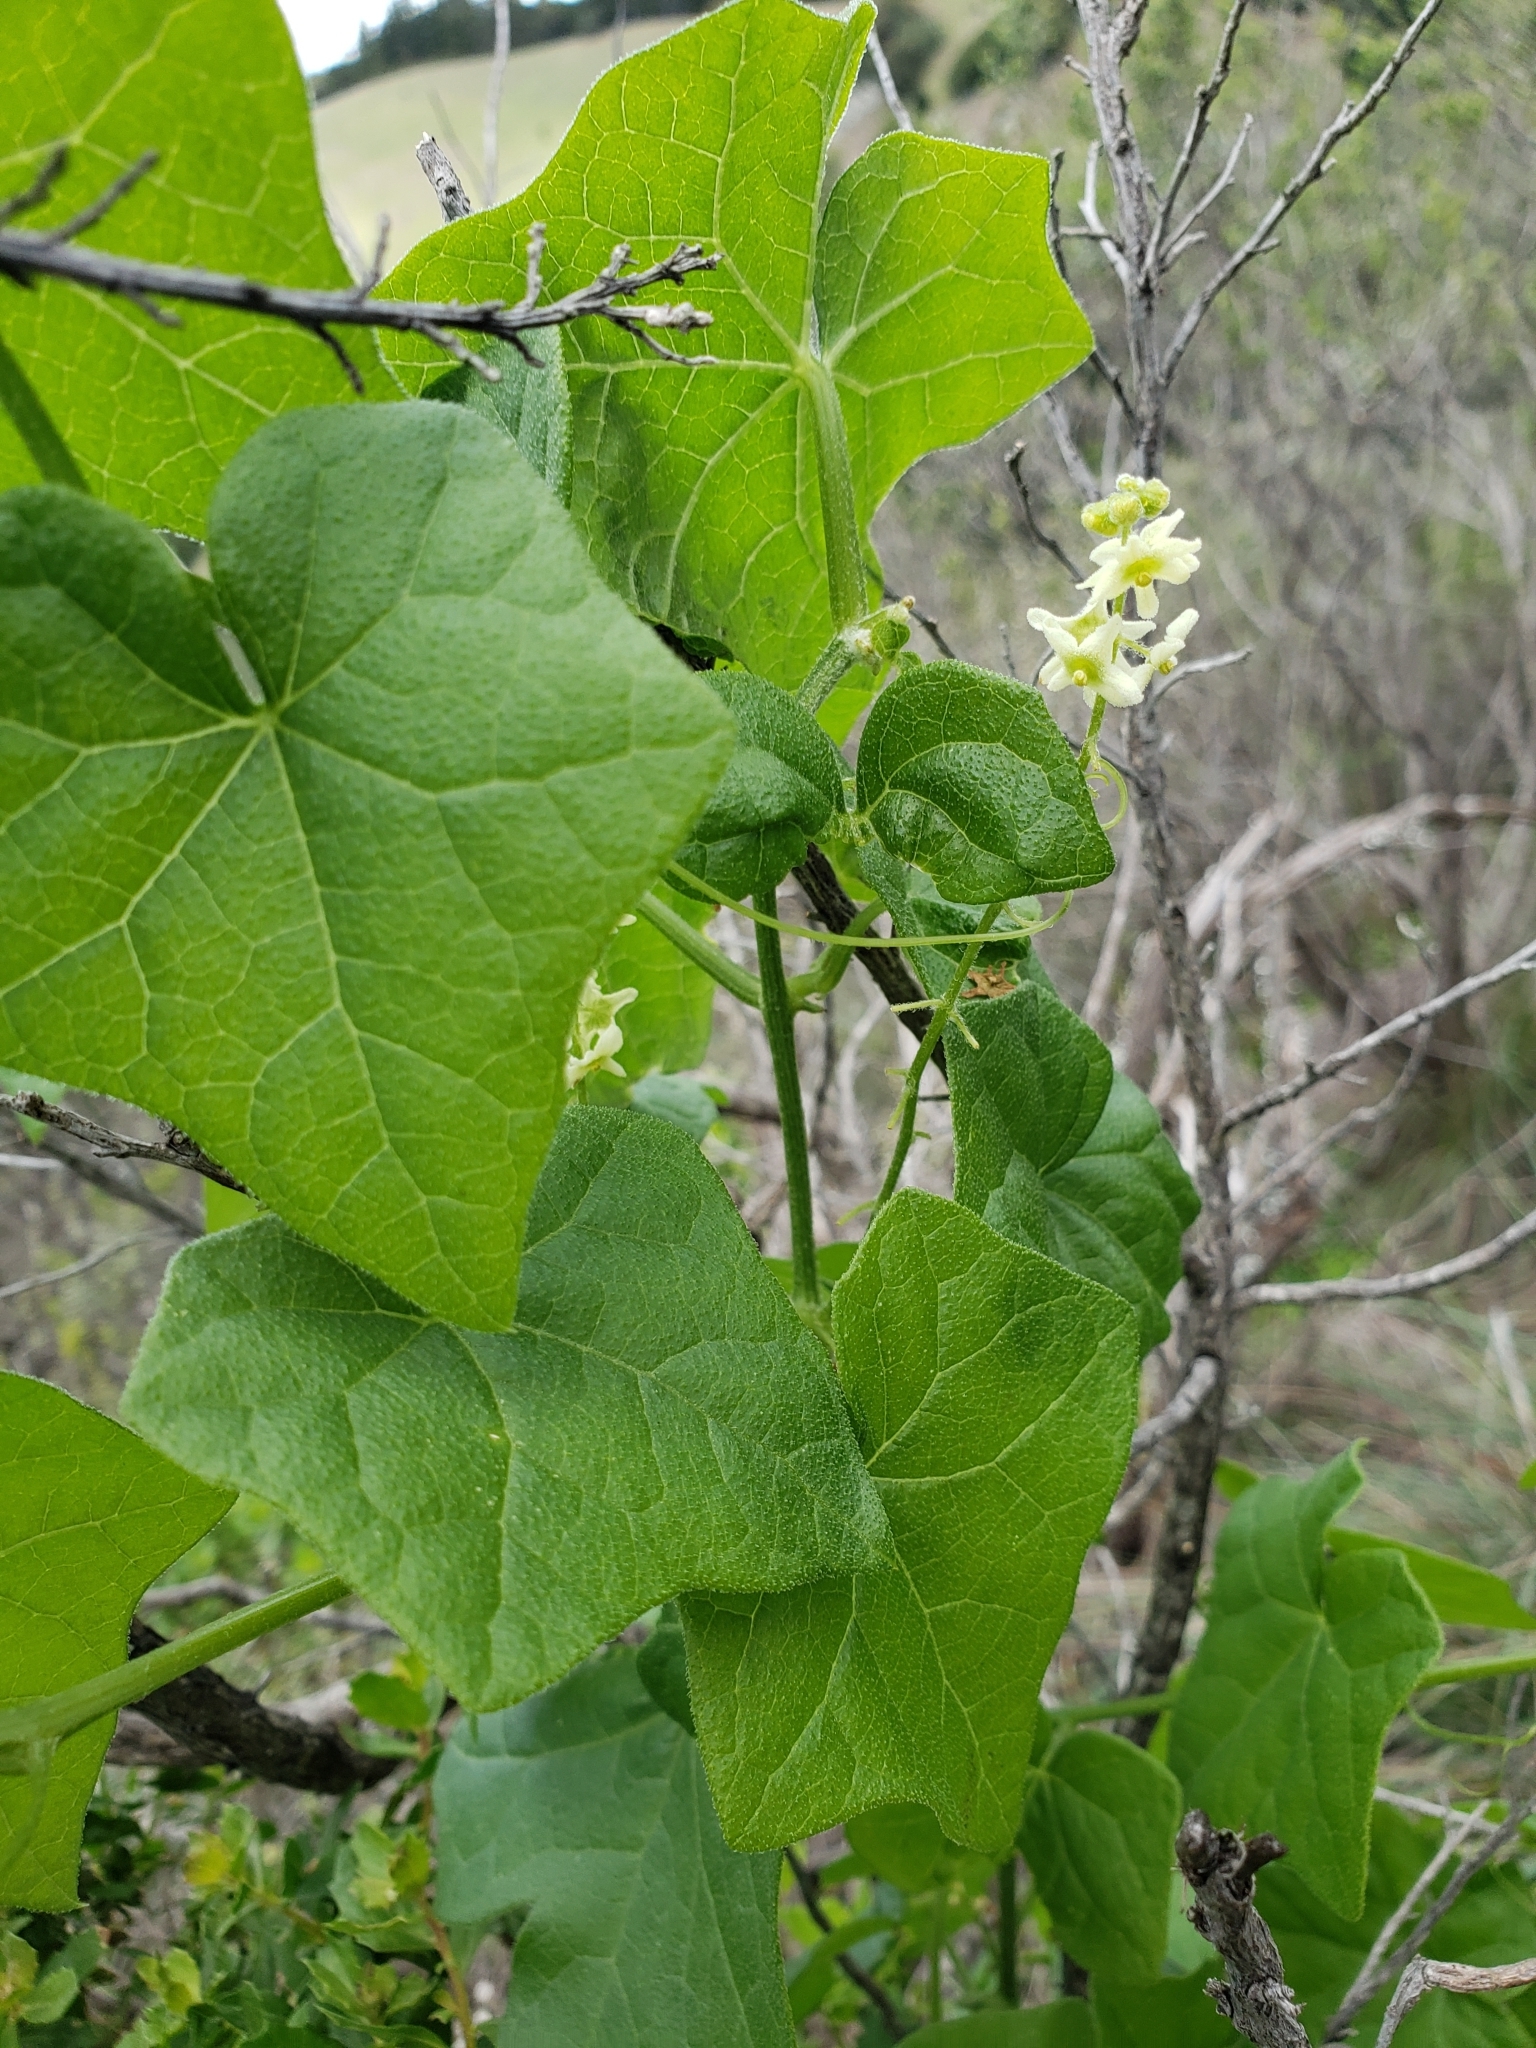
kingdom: Plantae
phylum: Tracheophyta
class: Magnoliopsida
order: Cucurbitales
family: Cucurbitaceae
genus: Marah
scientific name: Marah fabacea
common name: California manroot
